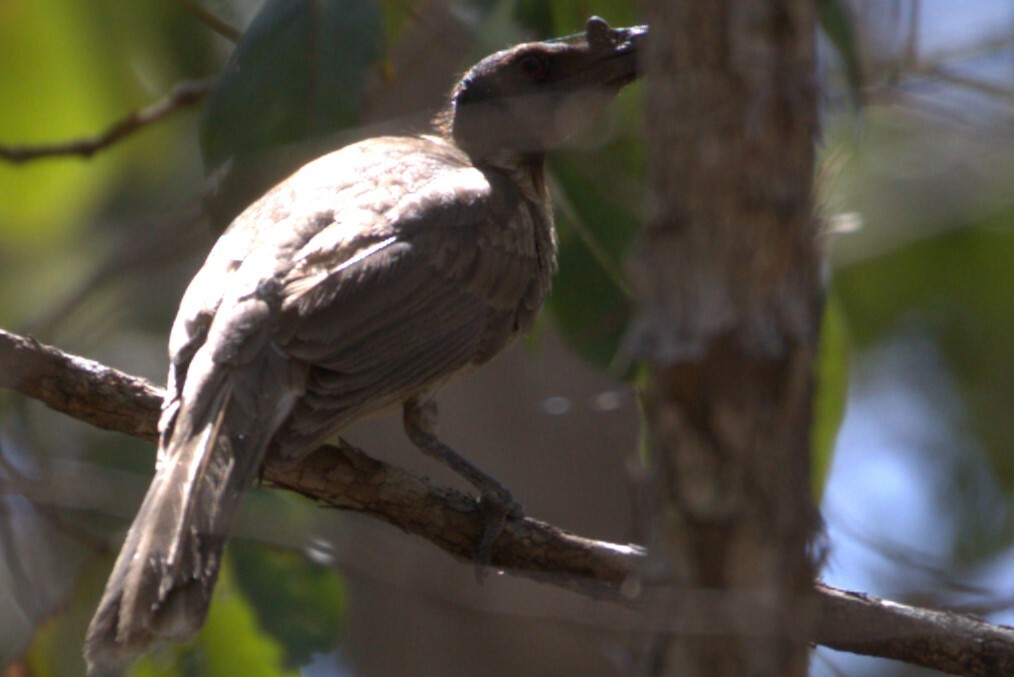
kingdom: Animalia
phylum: Chordata
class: Aves
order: Passeriformes
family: Meliphagidae
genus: Philemon
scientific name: Philemon corniculatus
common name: Noisy friarbird
